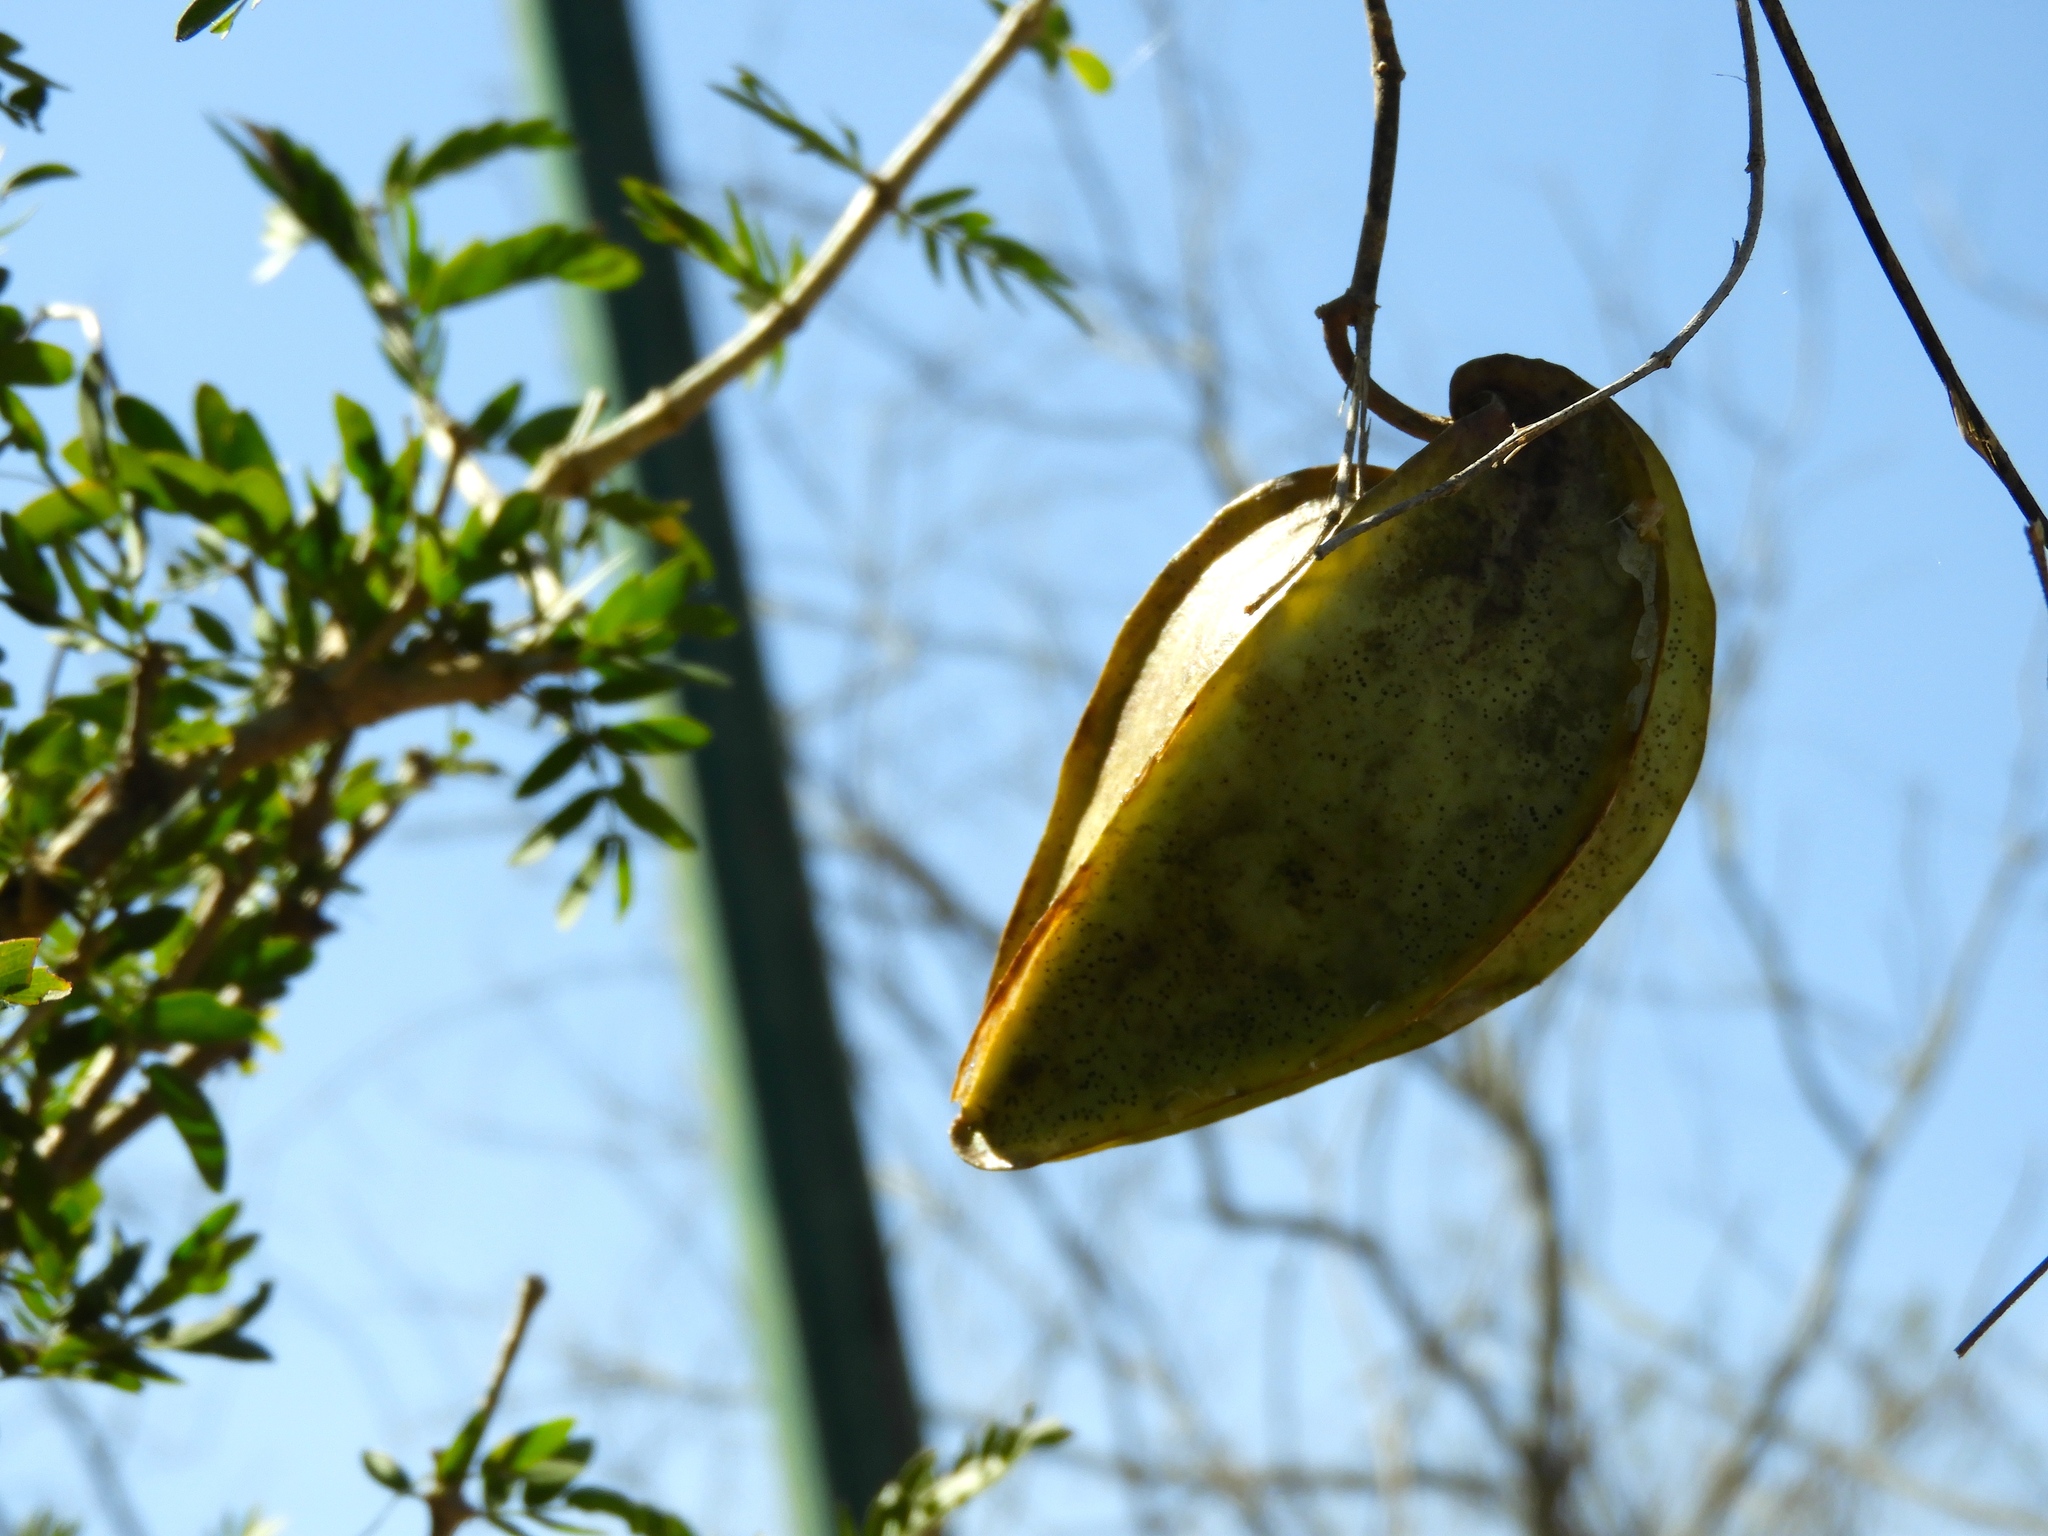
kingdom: Plantae
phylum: Tracheophyta
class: Magnoliopsida
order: Gentianales
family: Apocynaceae
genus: Gonolobus
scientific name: Gonolobus naturalistae
